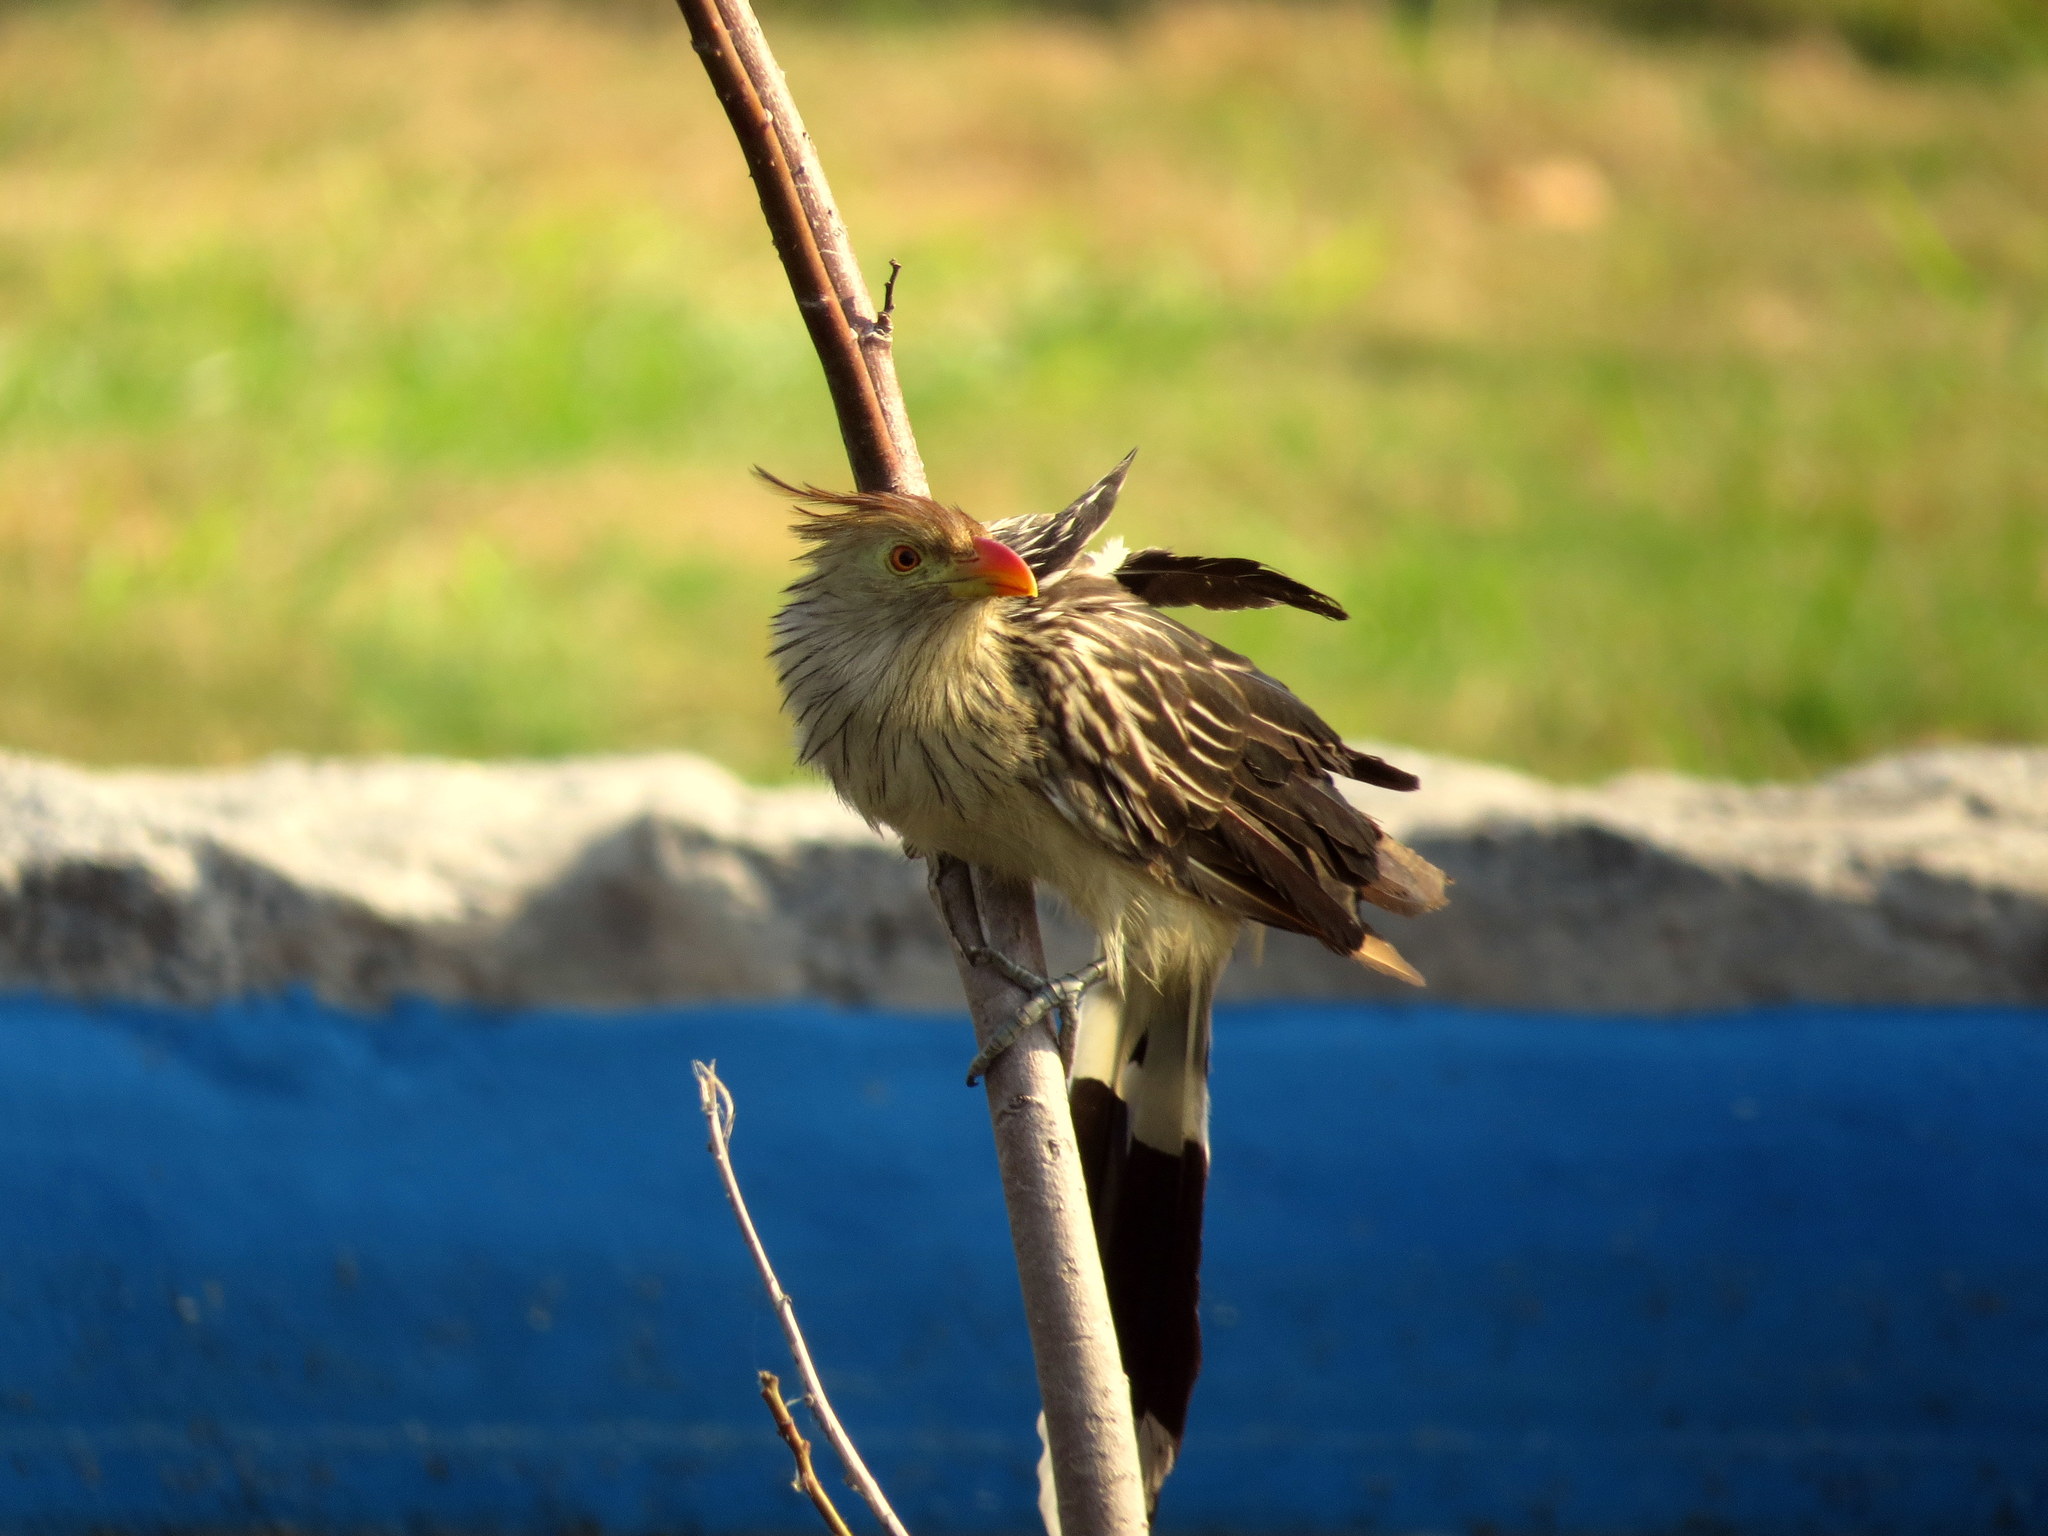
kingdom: Animalia
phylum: Chordata
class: Aves
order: Cuculiformes
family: Cuculidae
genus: Guira
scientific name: Guira guira
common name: Guira cuckoo
